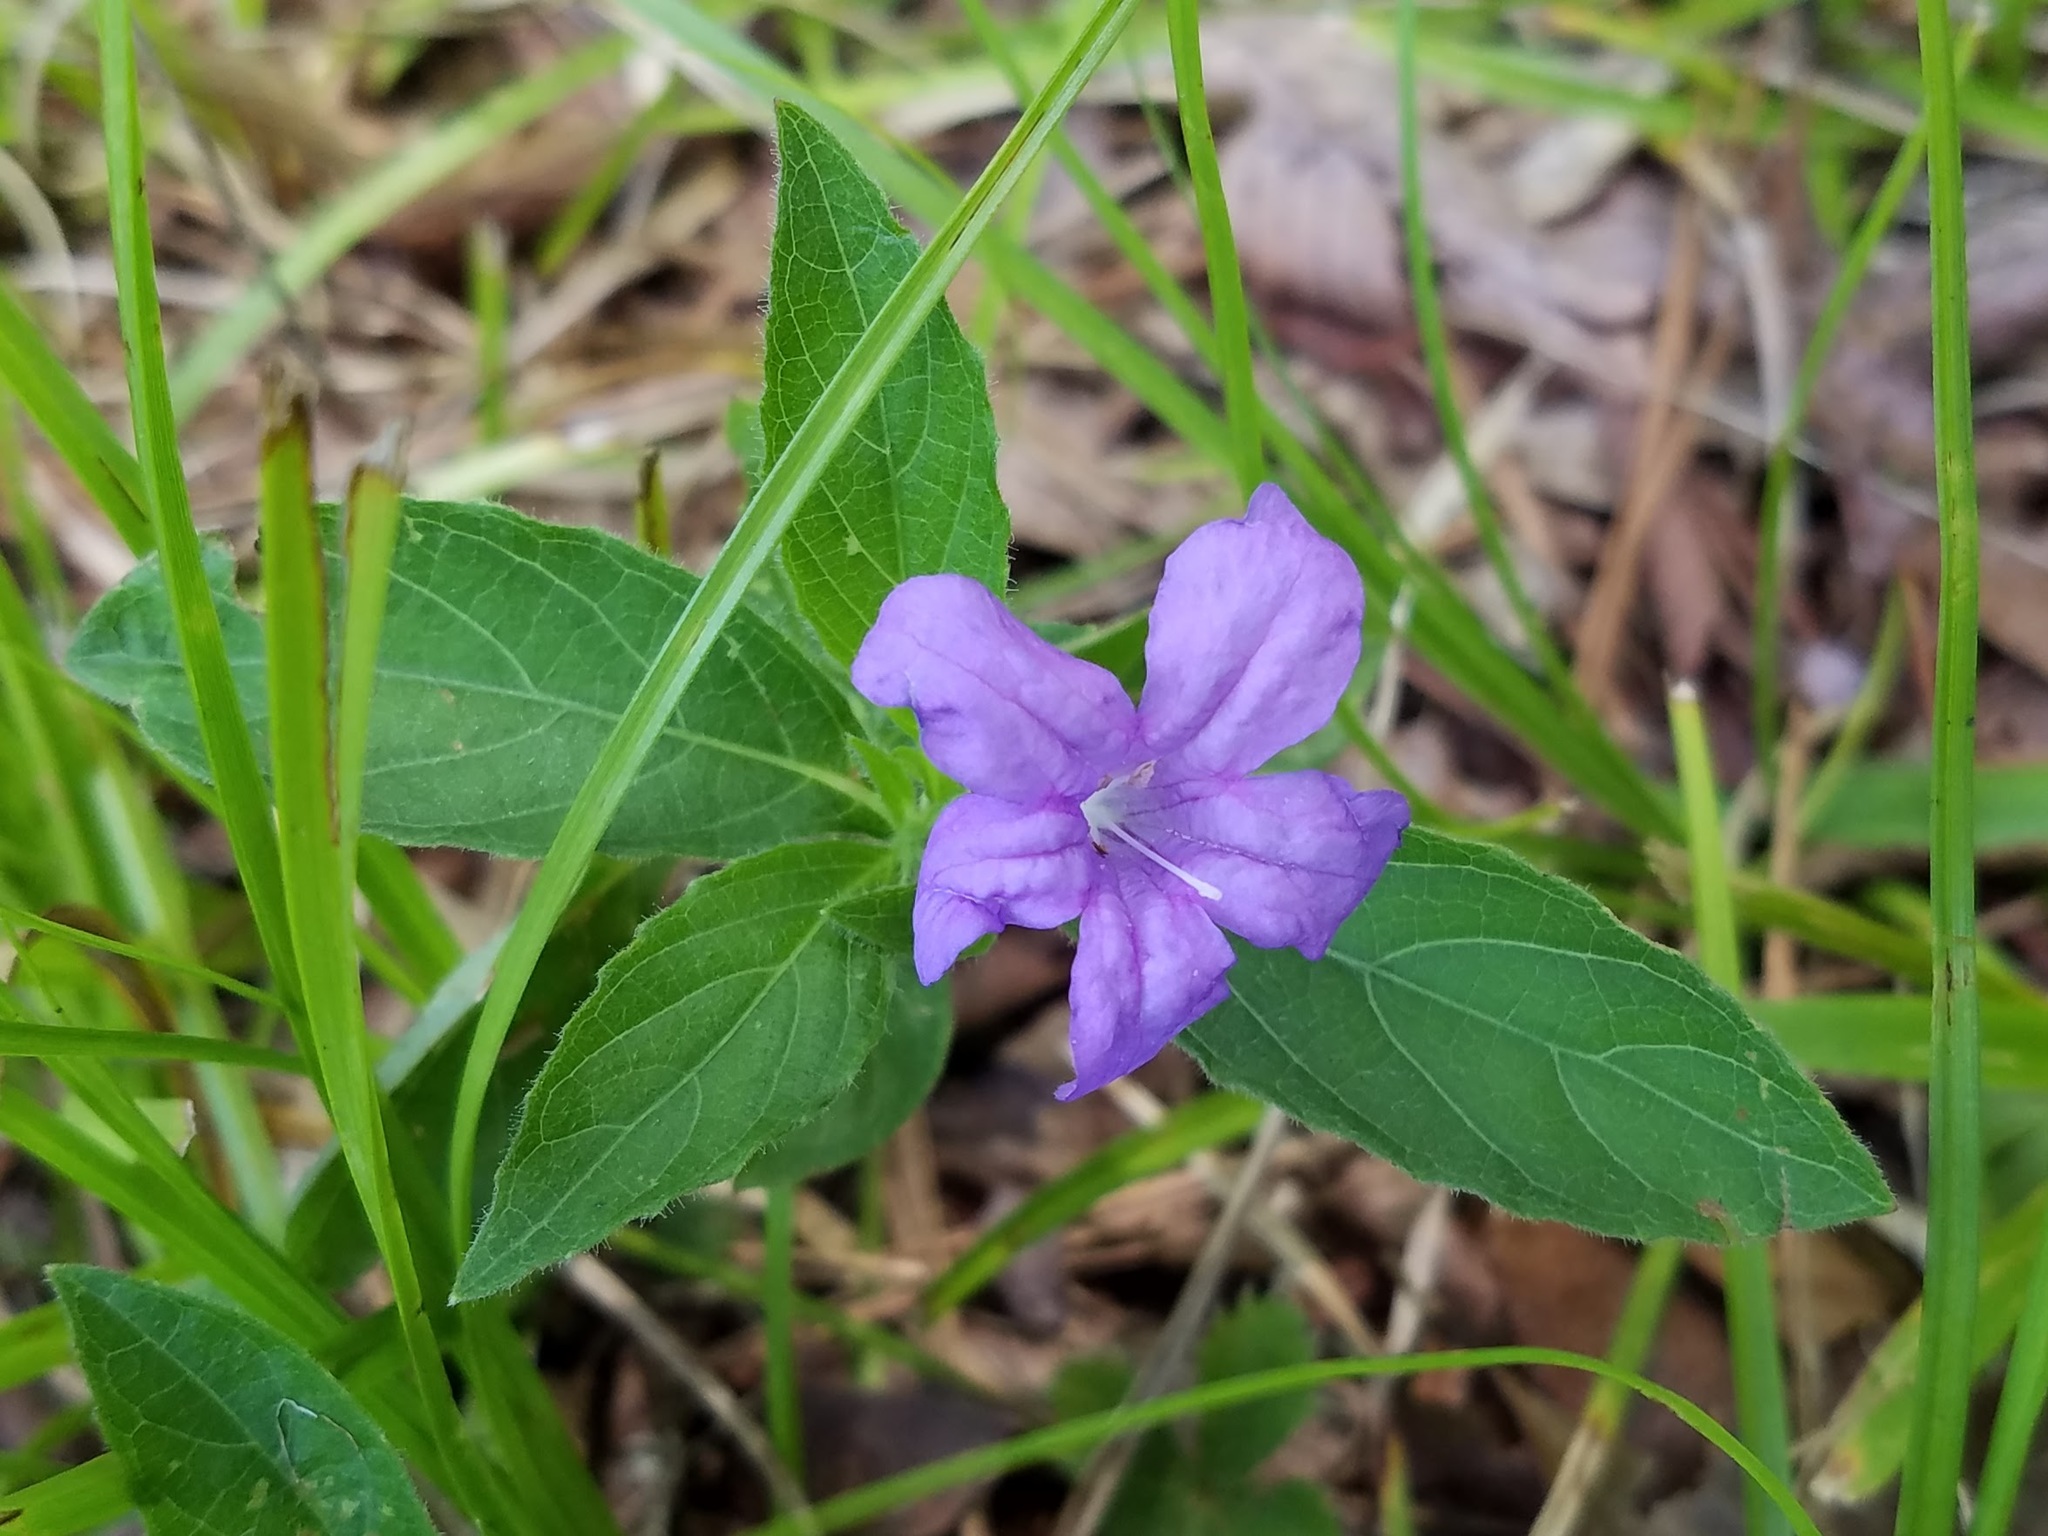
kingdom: Plantae
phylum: Tracheophyta
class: Magnoliopsida
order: Lamiales
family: Acanthaceae
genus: Ruellia
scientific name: Ruellia caroliniensis
